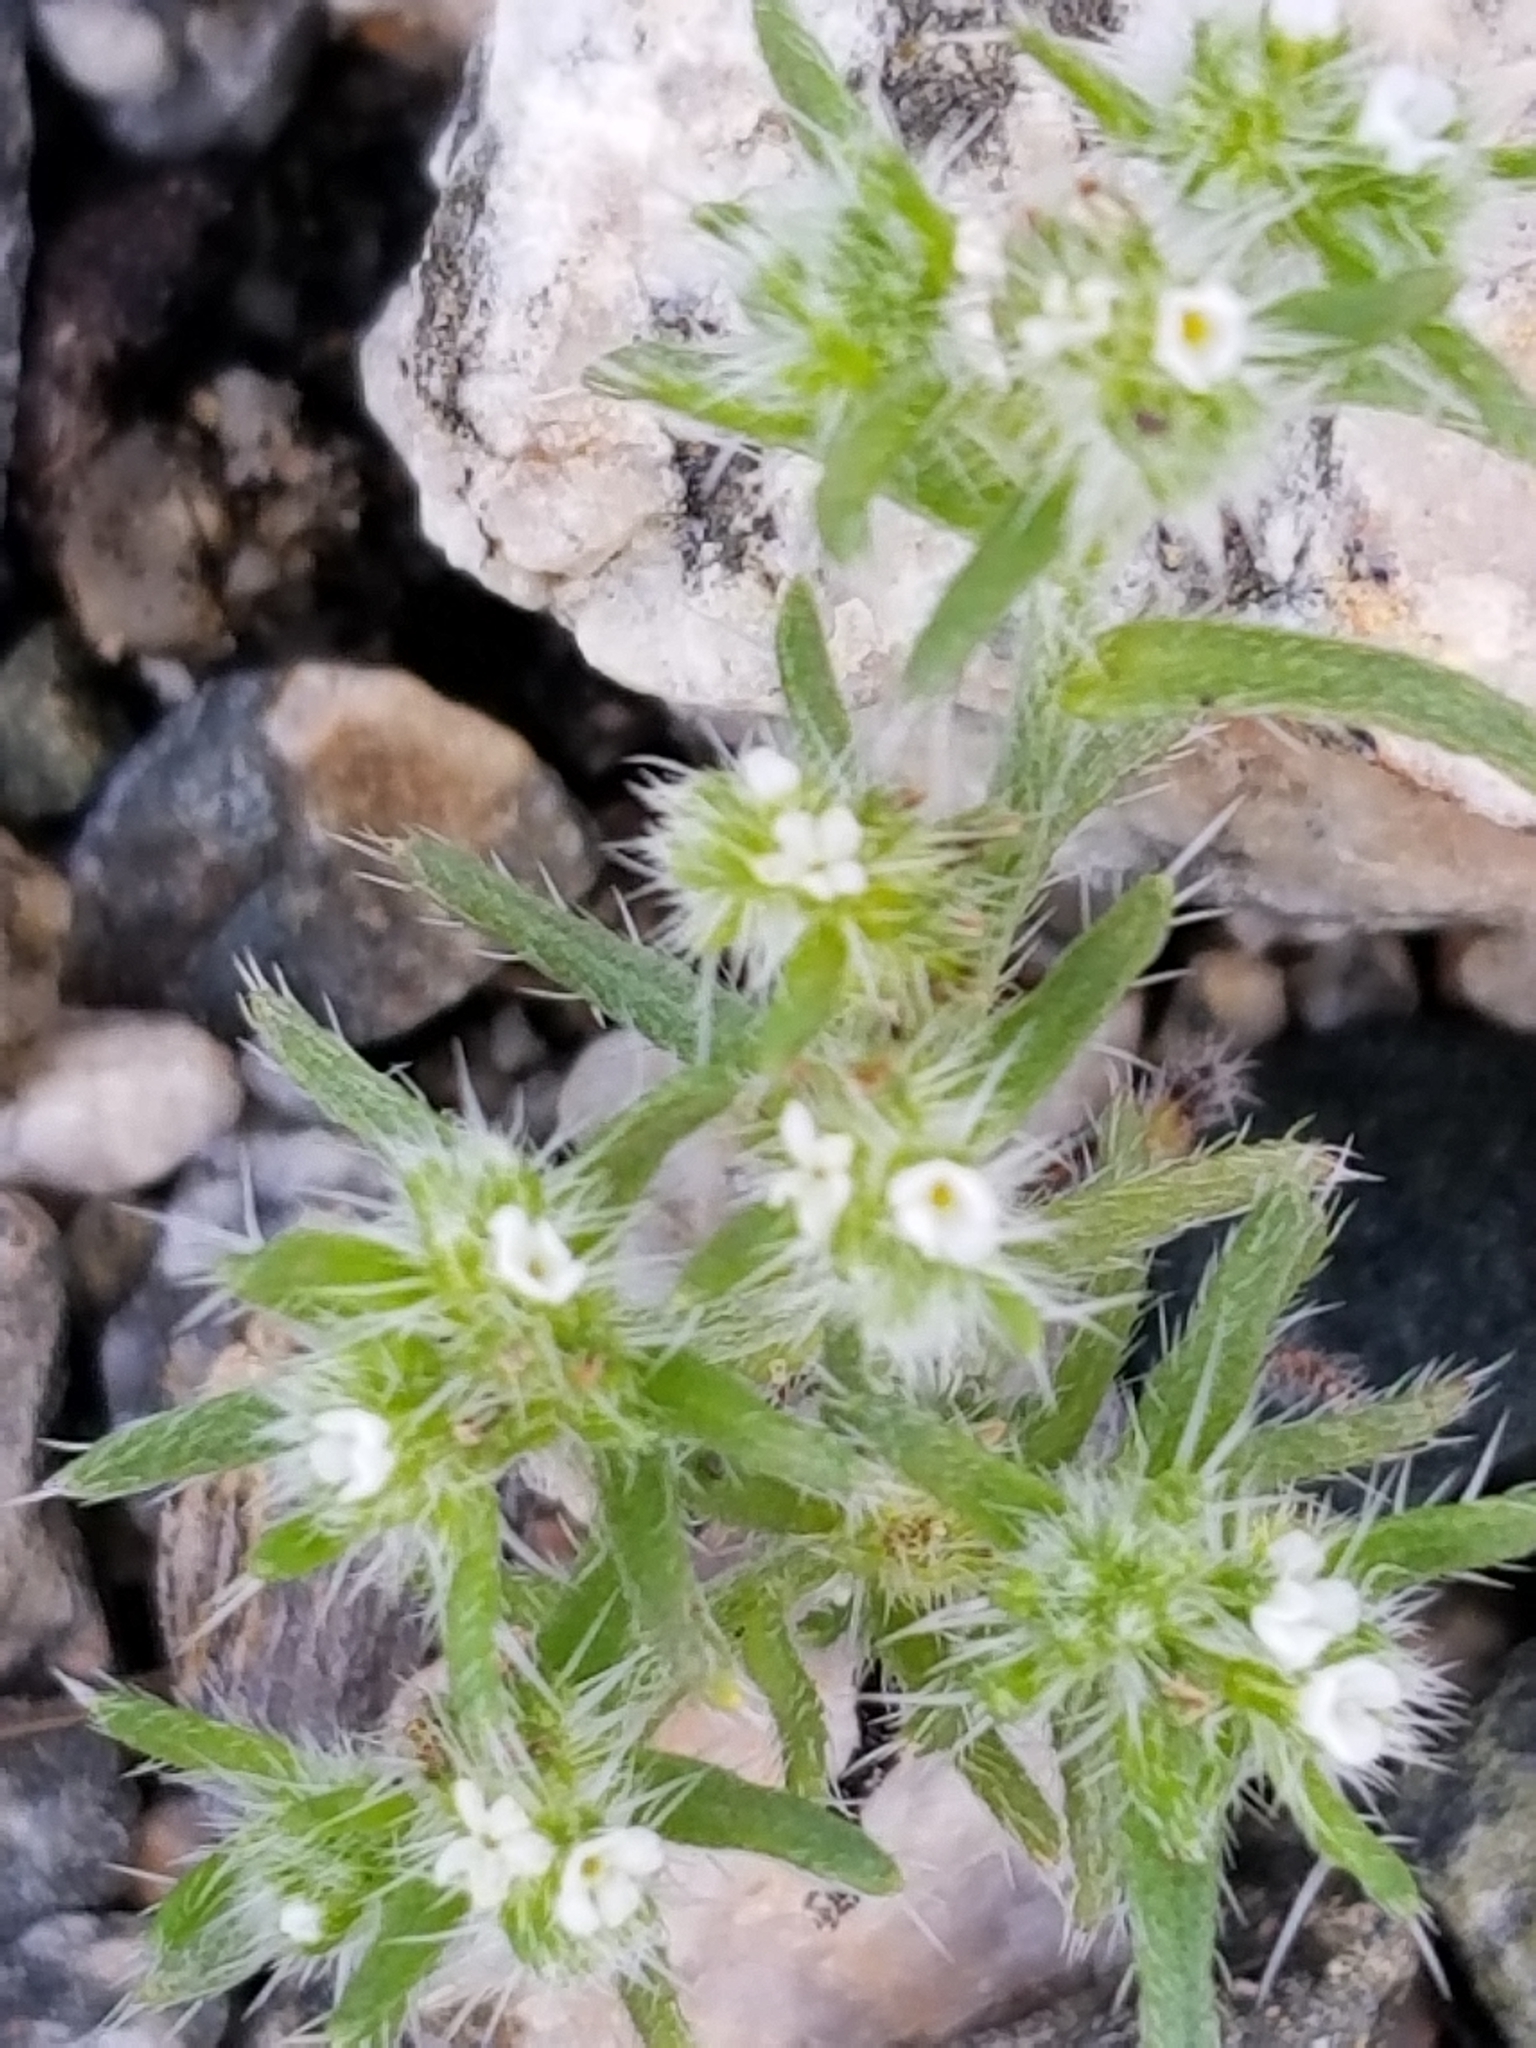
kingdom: Plantae
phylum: Tracheophyta
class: Magnoliopsida
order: Boraginales
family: Boraginaceae
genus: Cryptantha
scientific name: Cryptantha maritima
